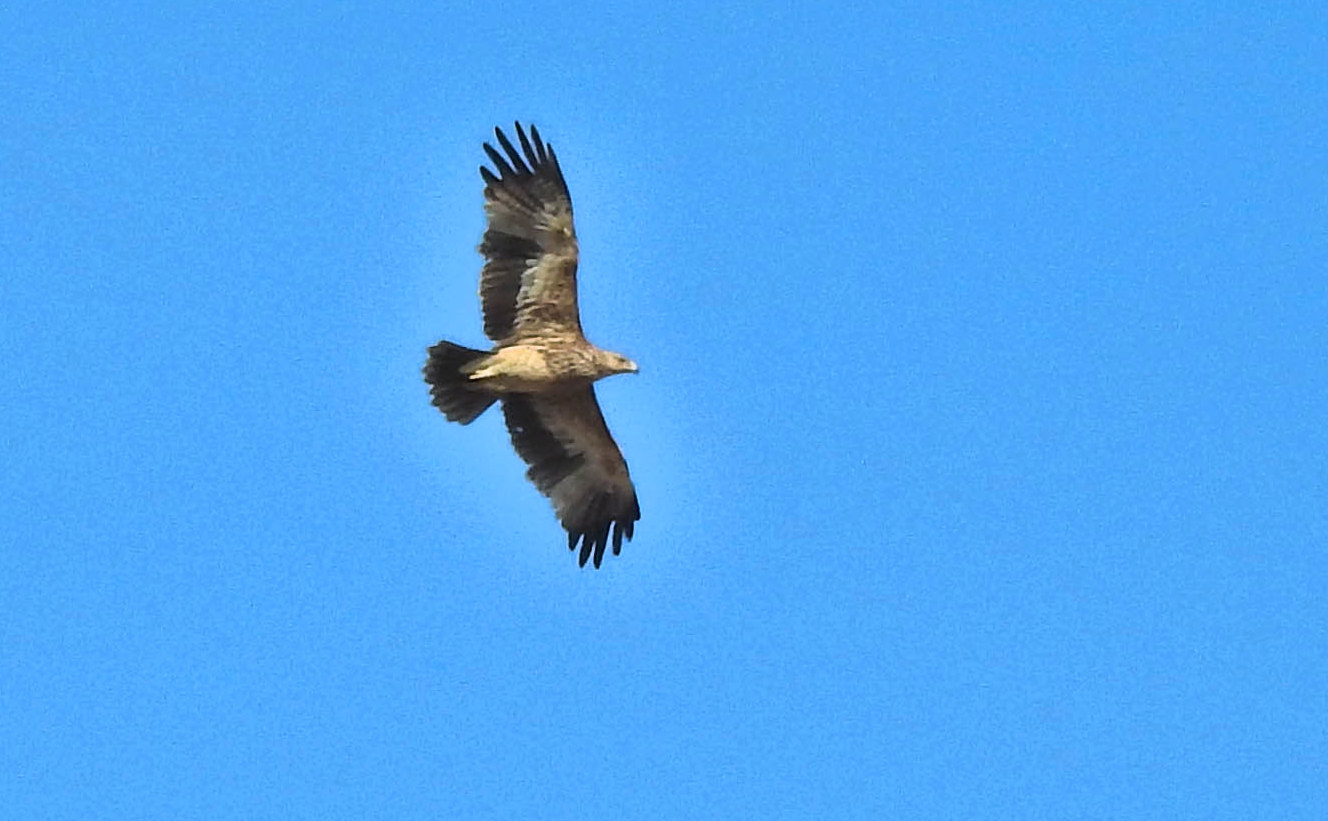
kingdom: Animalia
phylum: Chordata
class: Aves
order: Accipitriformes
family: Accipitridae
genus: Aquila
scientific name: Aquila heliaca
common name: Eastern imperial eagle
